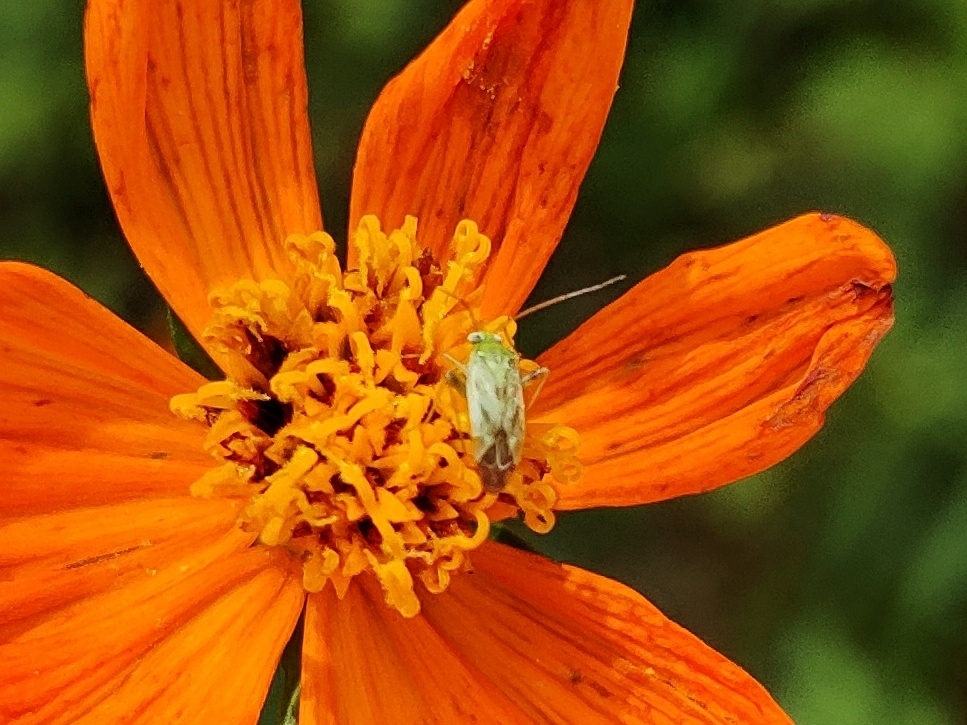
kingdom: Animalia
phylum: Arthropoda
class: Insecta
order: Hemiptera
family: Miridae
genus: Taylorilygus
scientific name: Taylorilygus apicalis
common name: Plant bug
